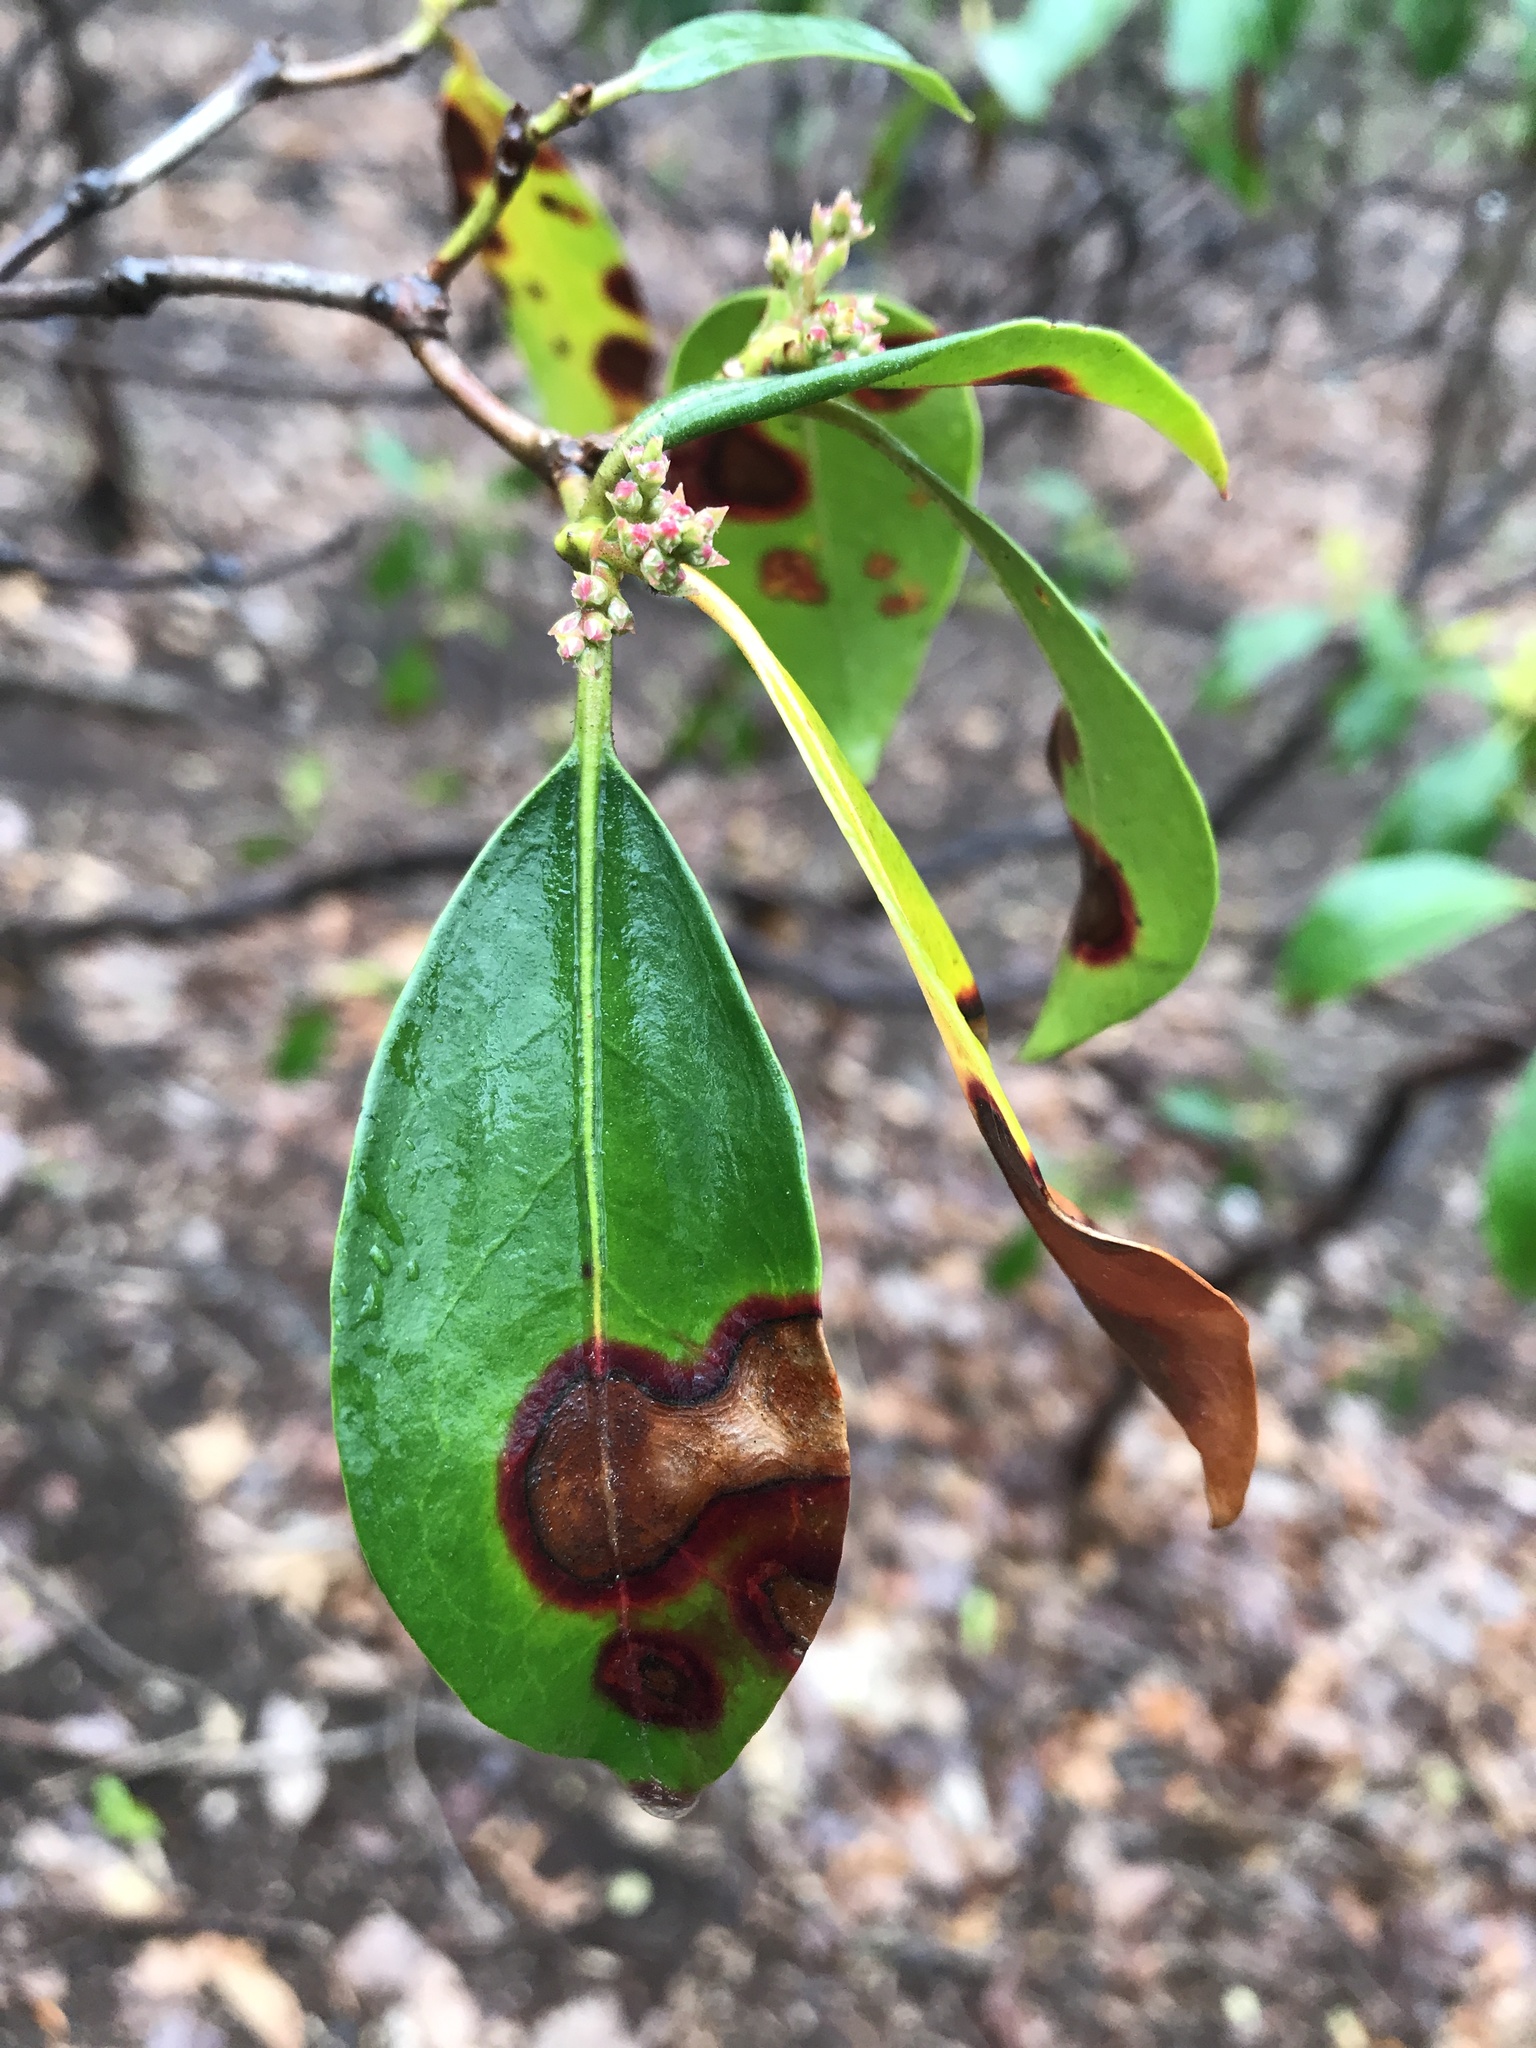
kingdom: Fungi
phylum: Ascomycota
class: Sordariomycetes
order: Diaporthales
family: Diaporthaceae
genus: Diaporthe
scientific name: Diaporthe kalmiae
